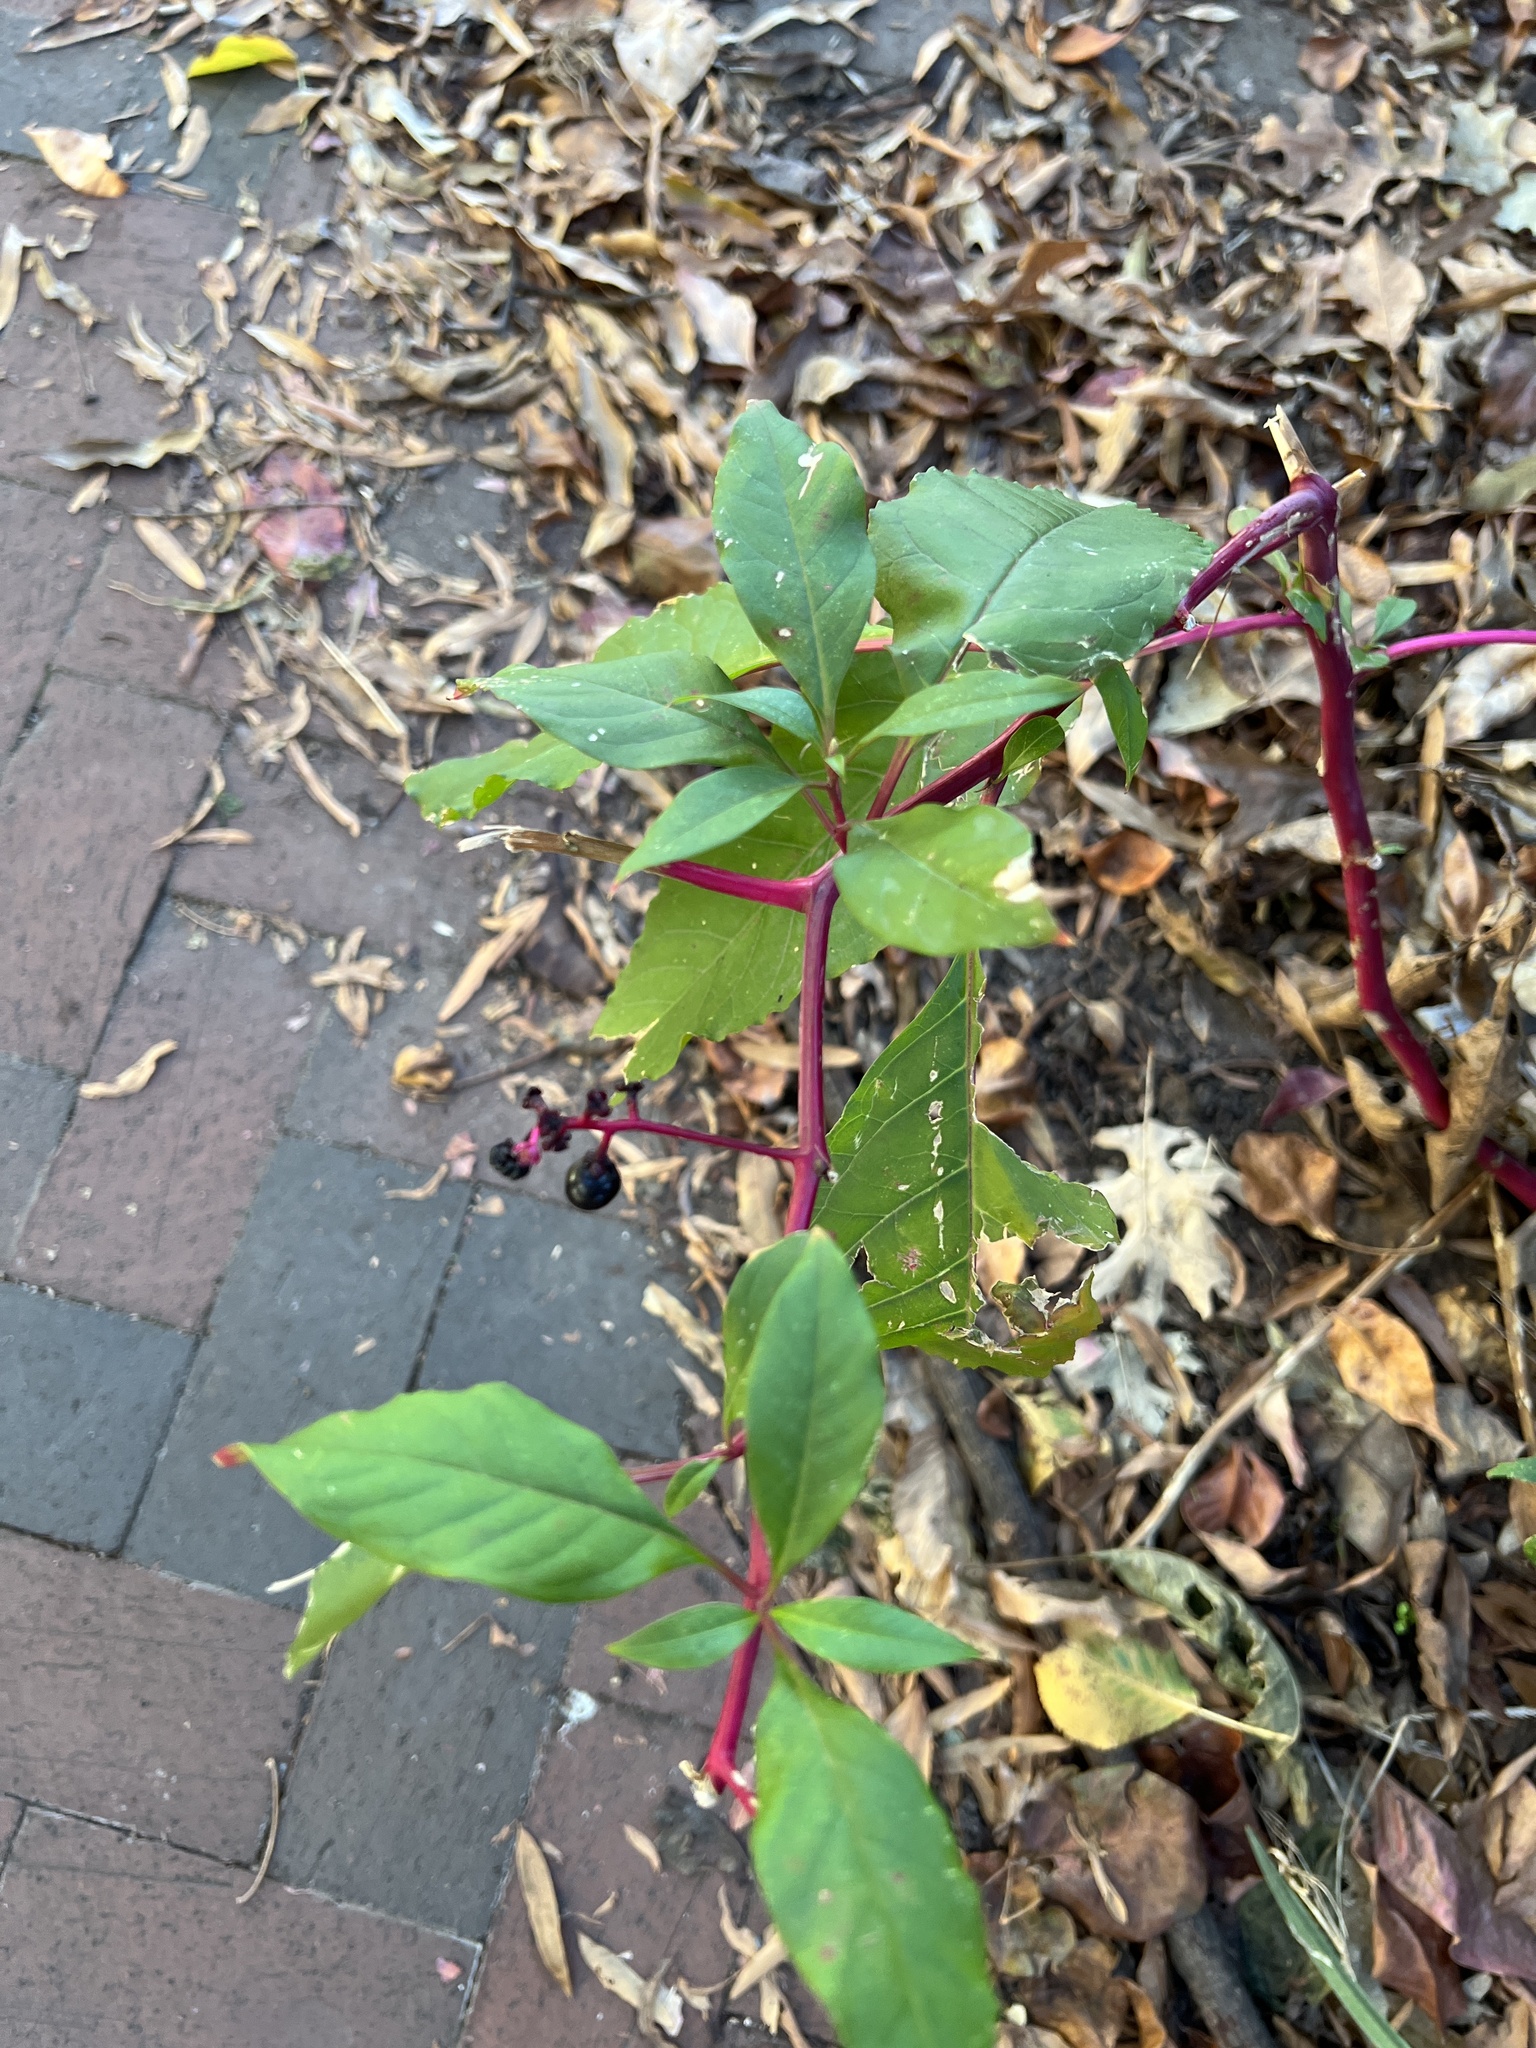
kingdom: Plantae
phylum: Tracheophyta
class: Magnoliopsida
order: Caryophyllales
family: Phytolaccaceae
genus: Phytolacca
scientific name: Phytolacca americana
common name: American pokeweed
